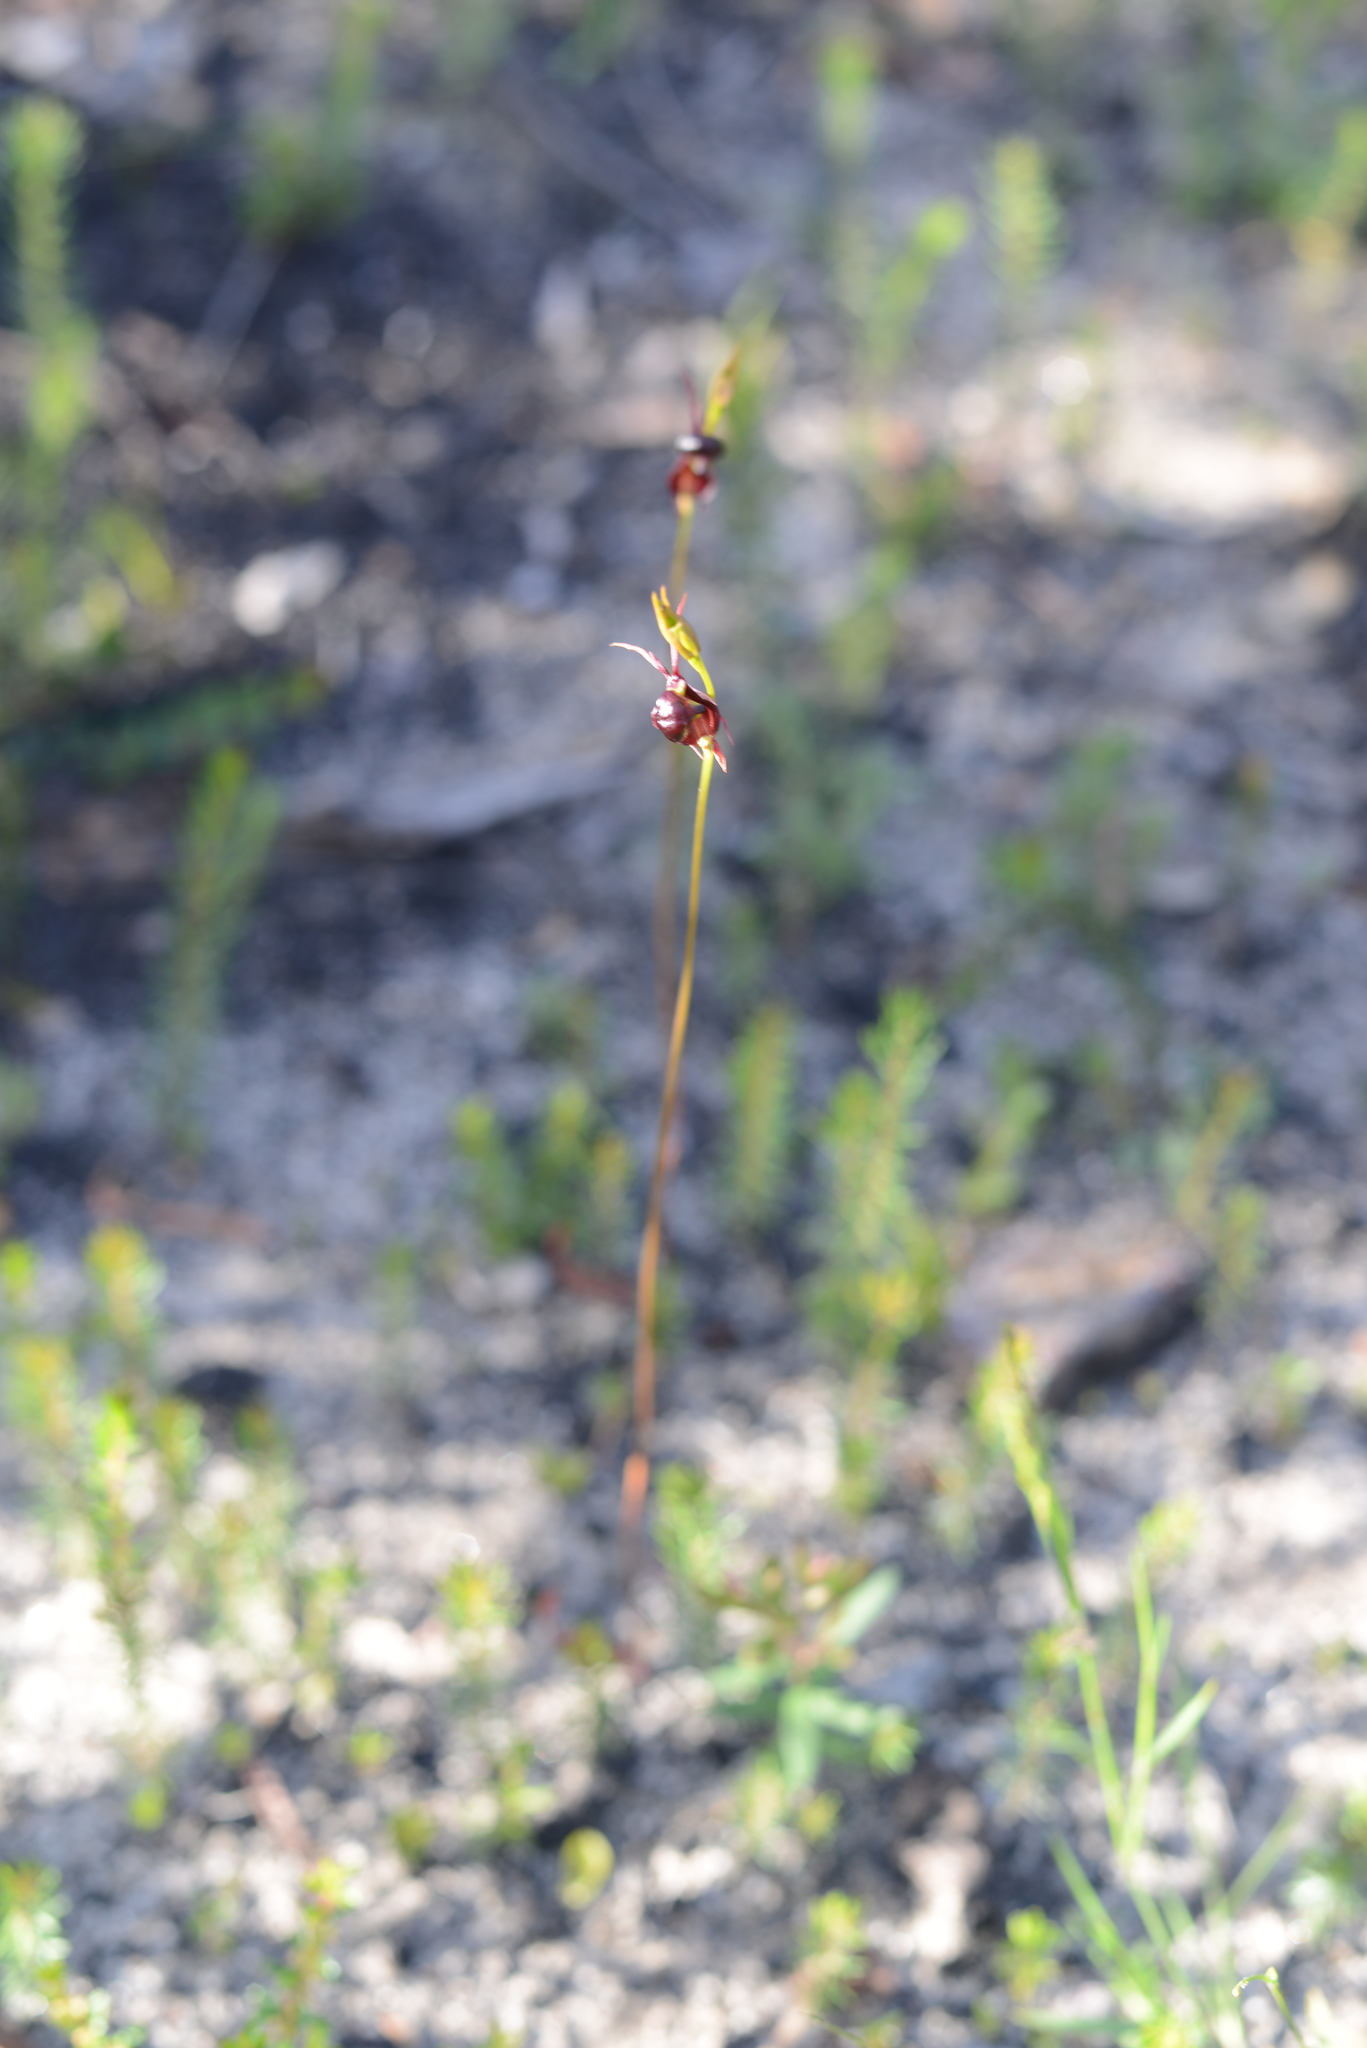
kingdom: Plantae
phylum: Tracheophyta
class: Liliopsida
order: Asparagales
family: Orchidaceae
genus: Caleana
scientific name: Caleana major
